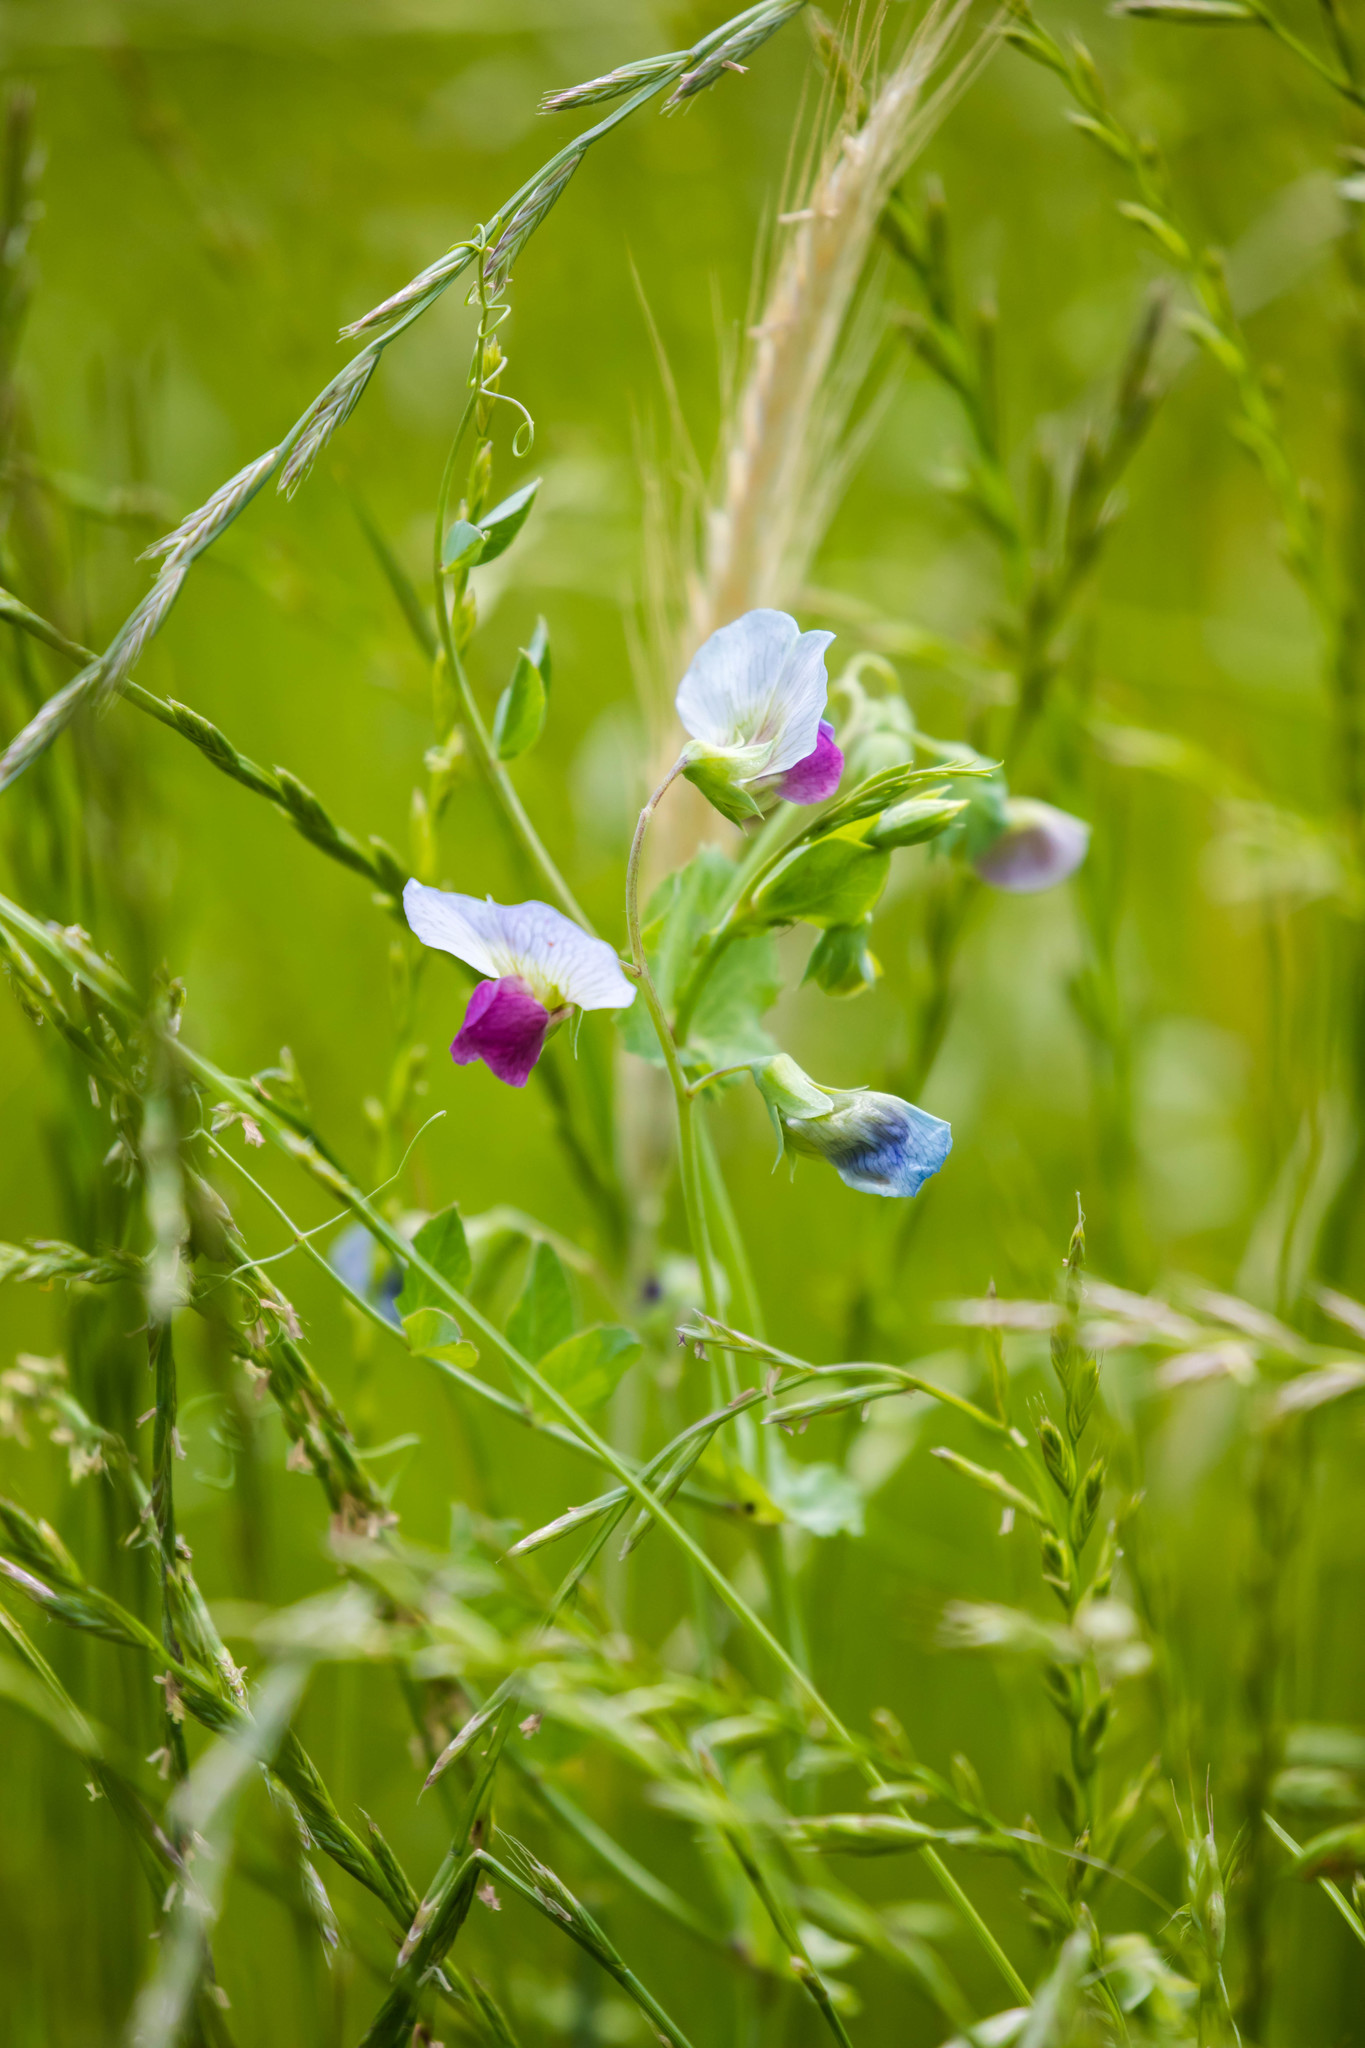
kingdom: Plantae
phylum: Tracheophyta
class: Magnoliopsida
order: Fabales
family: Fabaceae
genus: Lathyrus
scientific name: Lathyrus oleraceus
